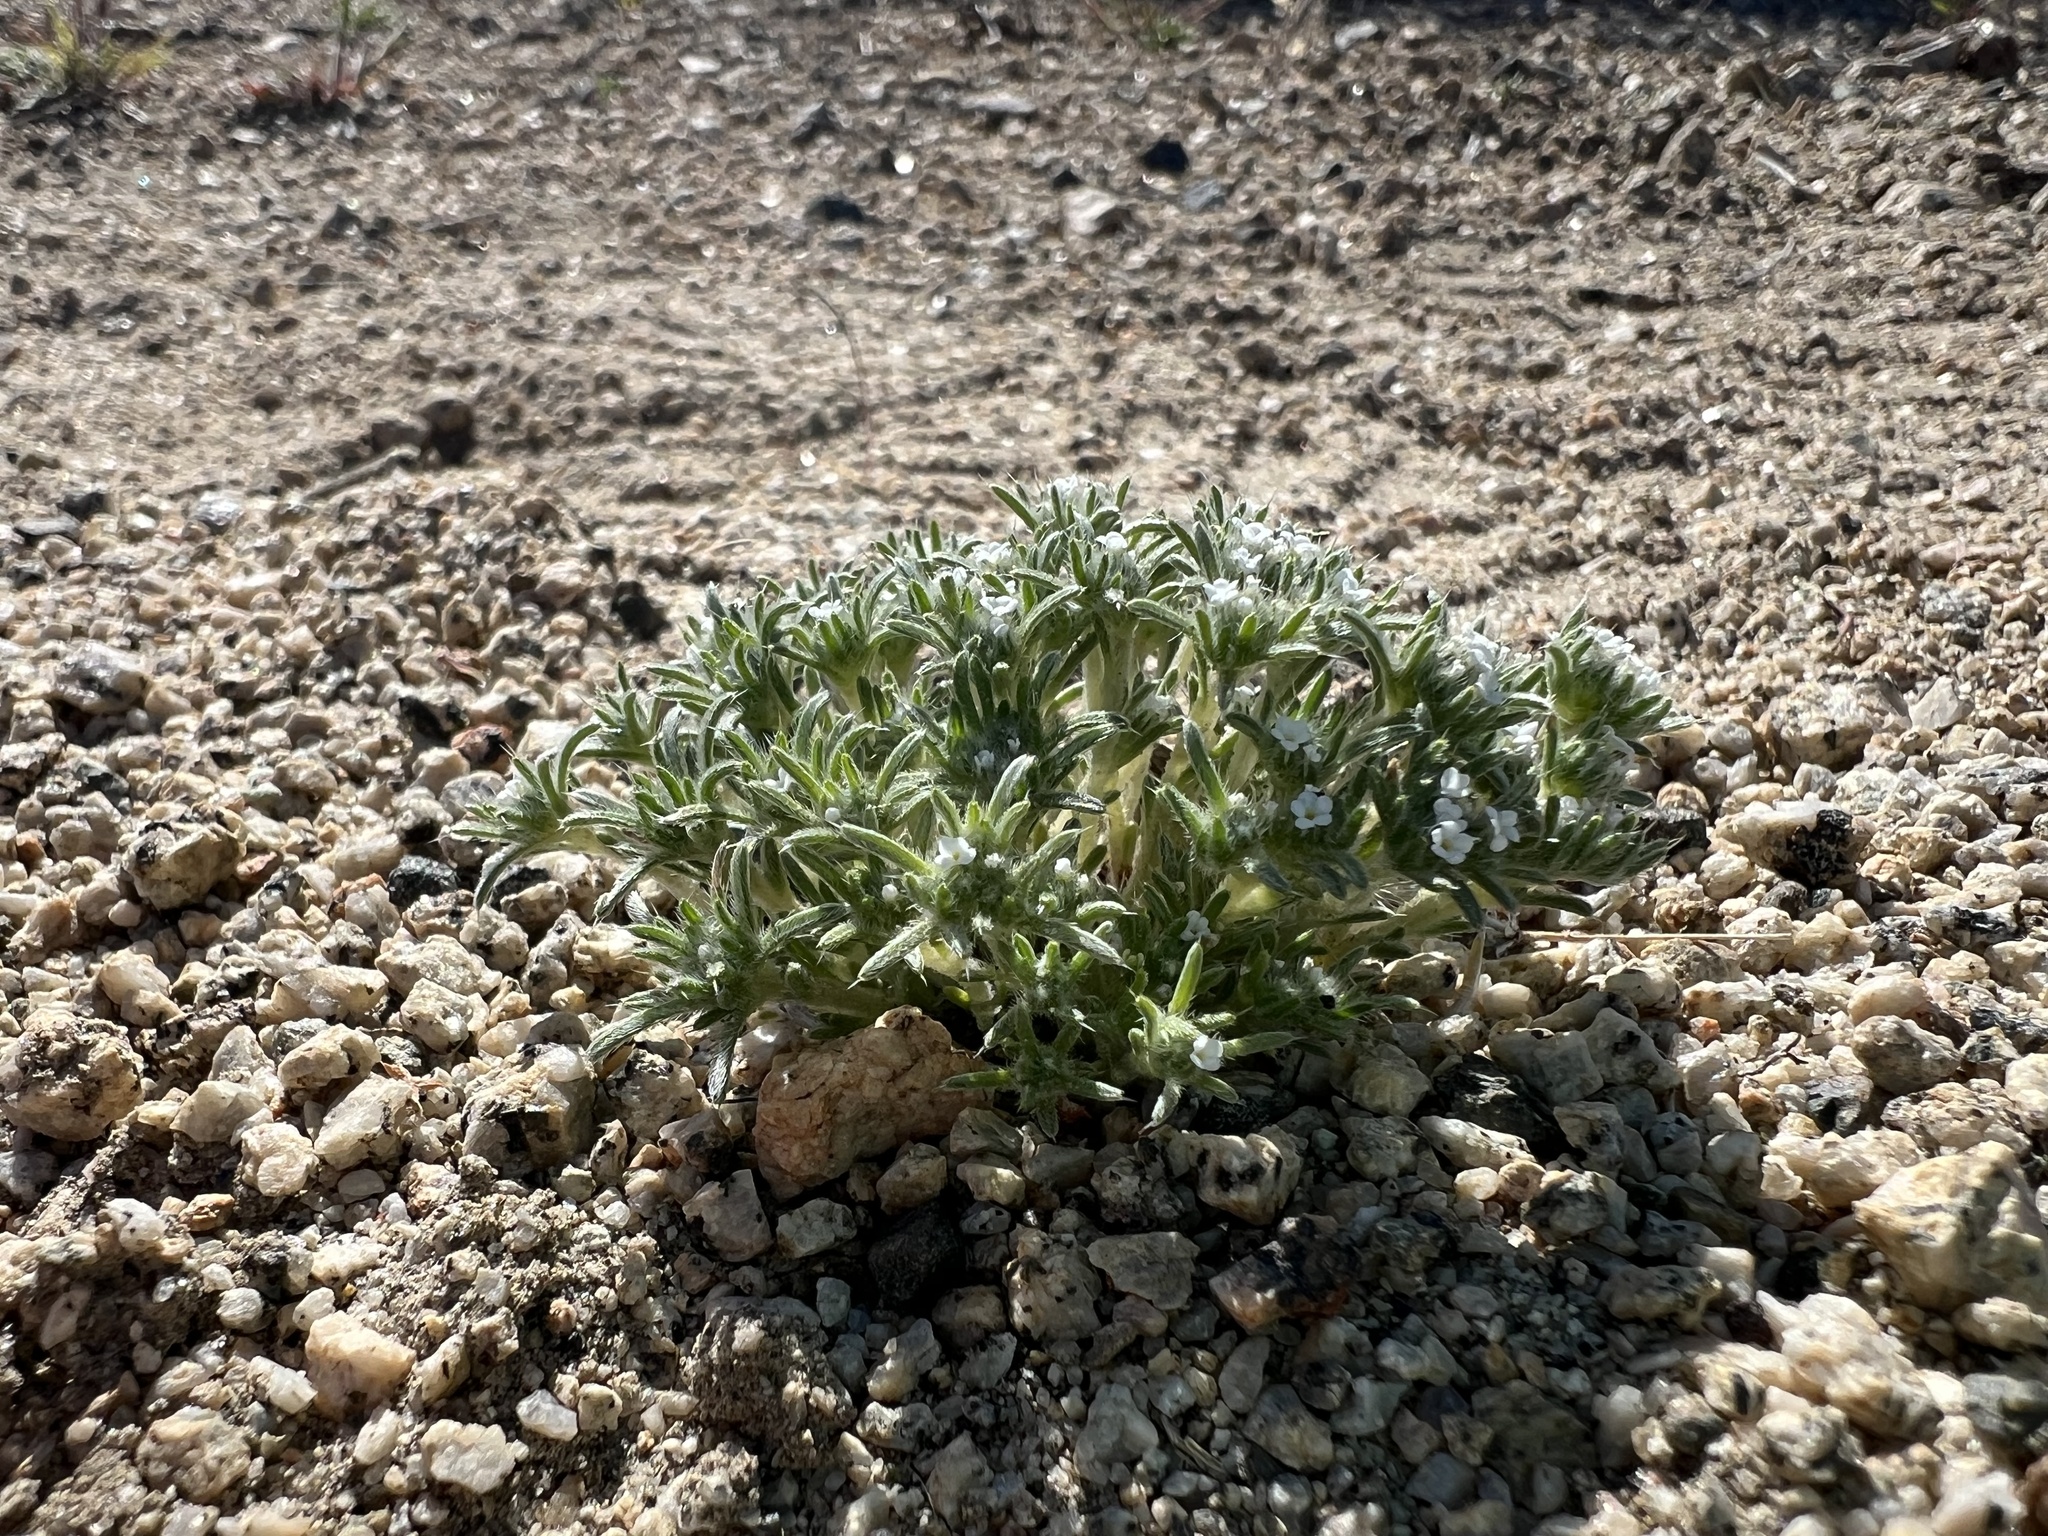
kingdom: Plantae
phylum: Tracheophyta
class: Magnoliopsida
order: Boraginales
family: Boraginaceae
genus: Greeneocharis
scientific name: Greeneocharis circumscissa
